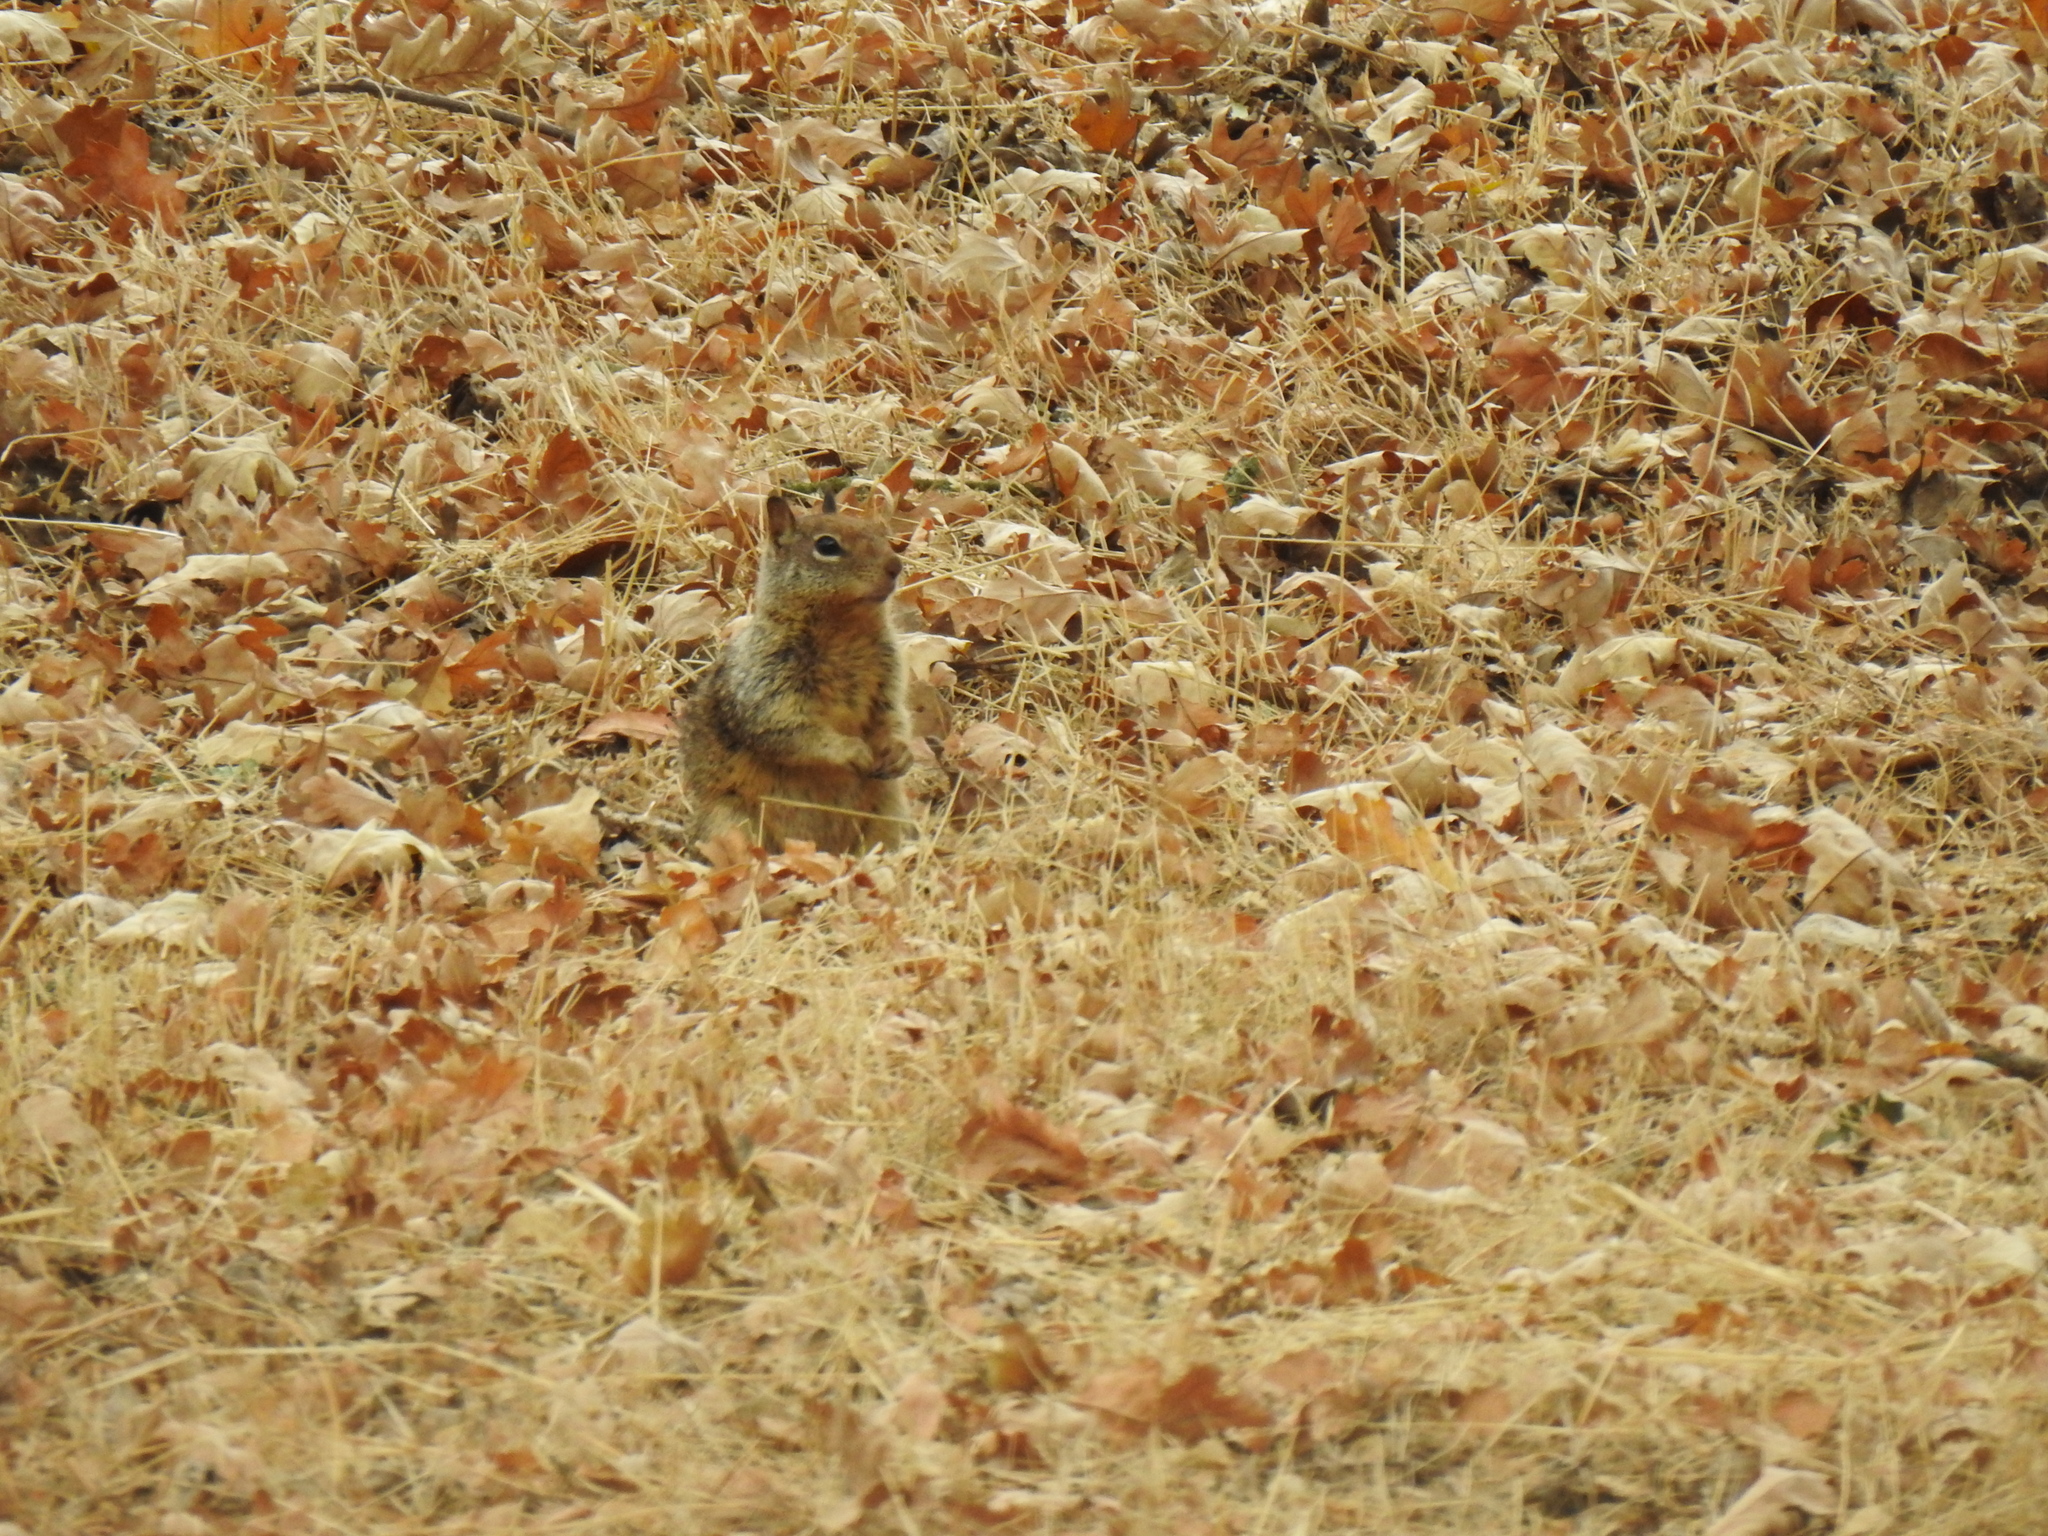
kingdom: Animalia
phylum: Chordata
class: Mammalia
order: Rodentia
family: Sciuridae
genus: Otospermophilus
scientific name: Otospermophilus beecheyi
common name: California ground squirrel
